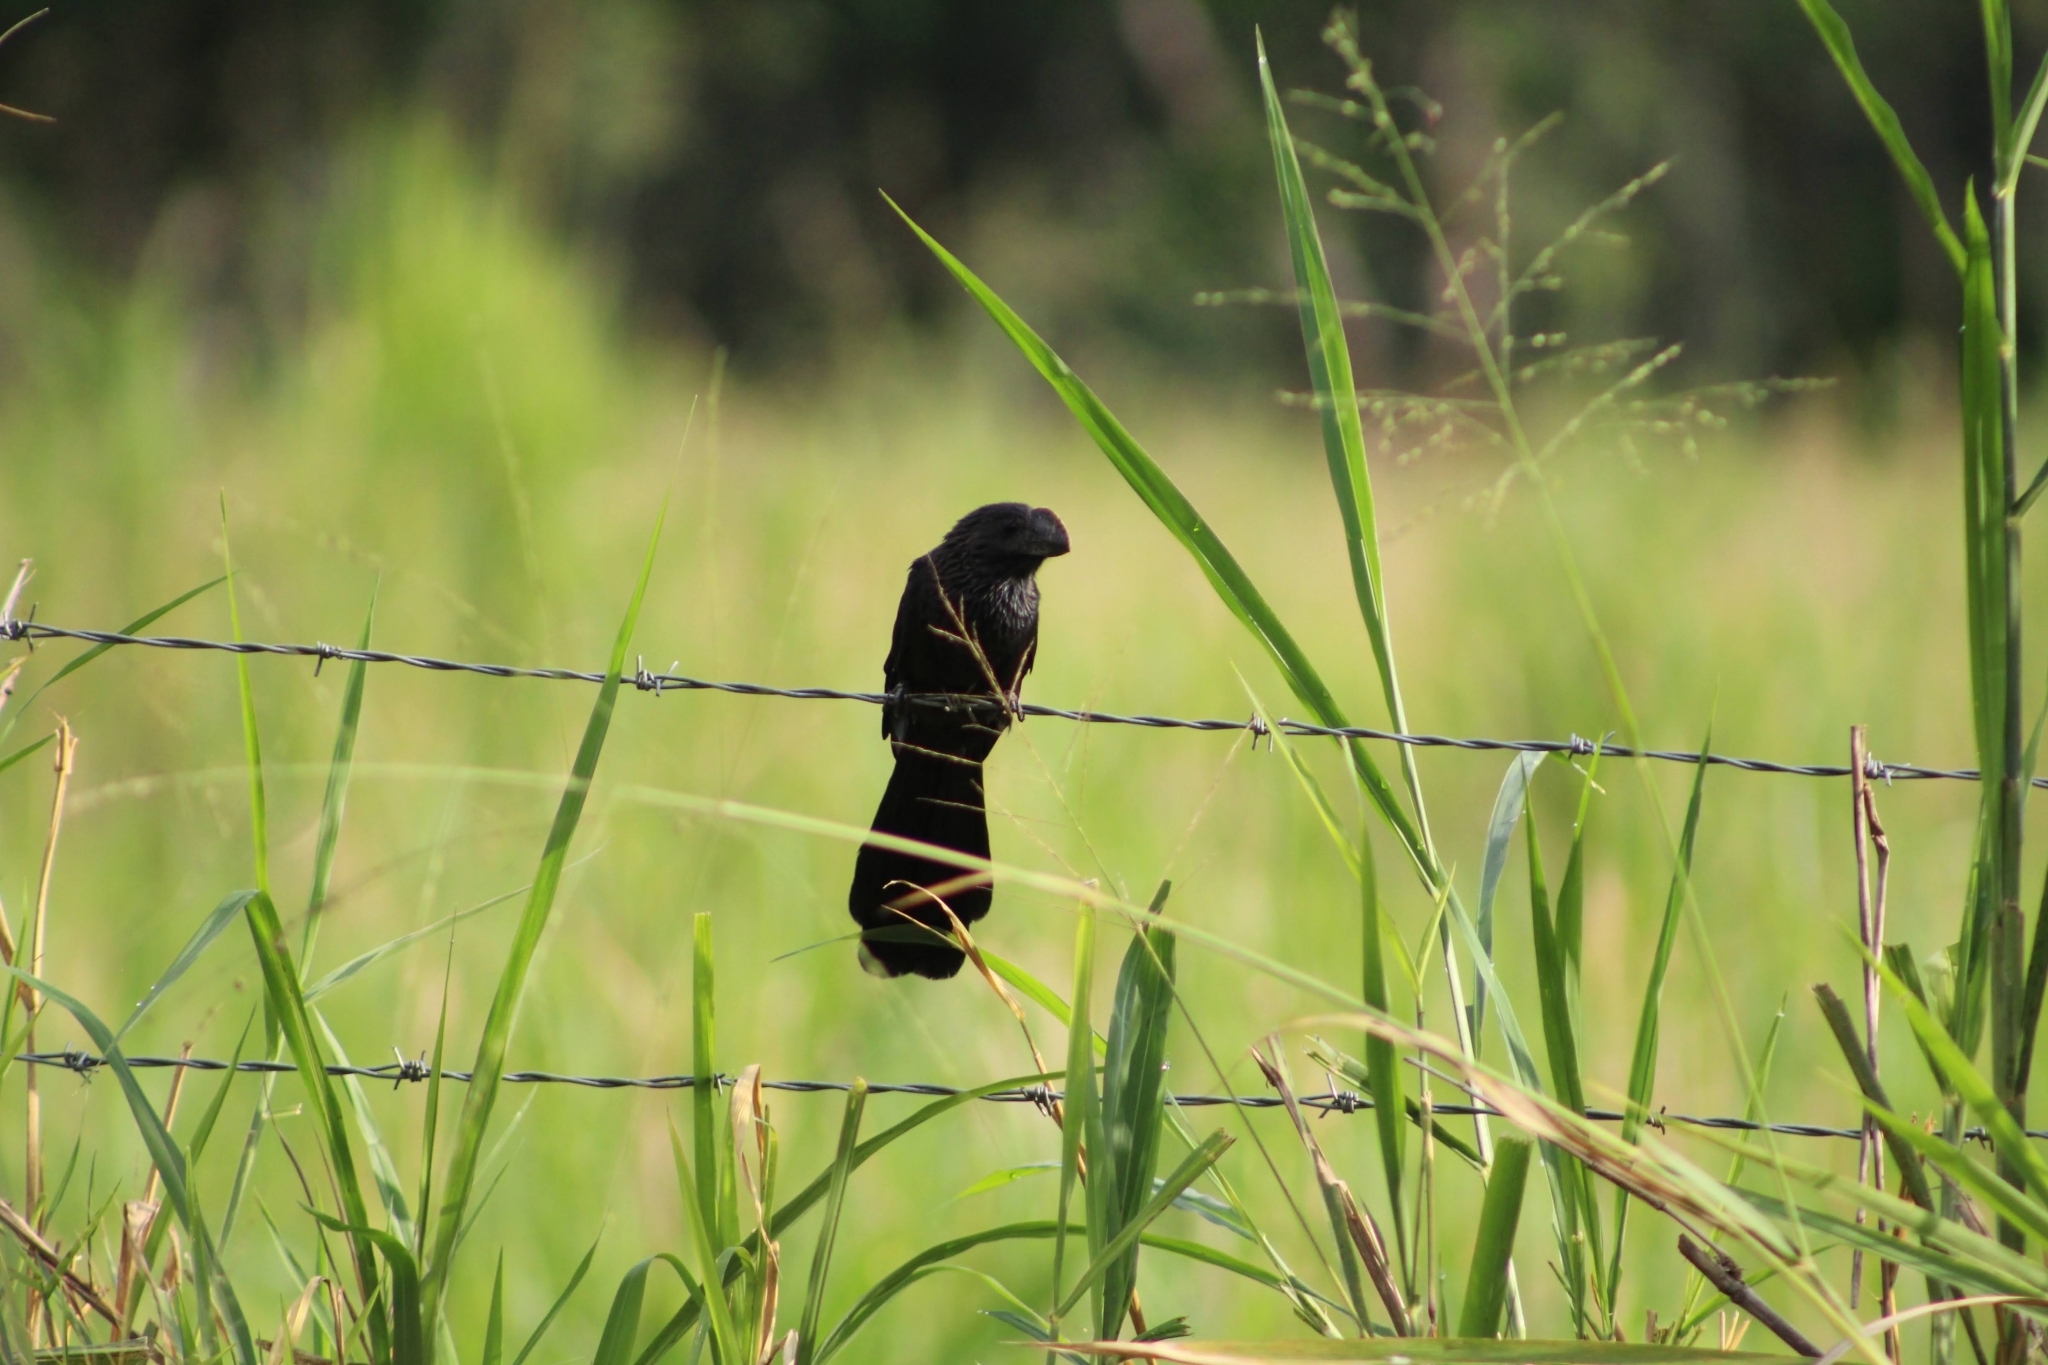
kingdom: Animalia
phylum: Chordata
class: Aves
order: Cuculiformes
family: Cuculidae
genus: Crotophaga
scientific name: Crotophaga ani
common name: Smooth-billed ani
